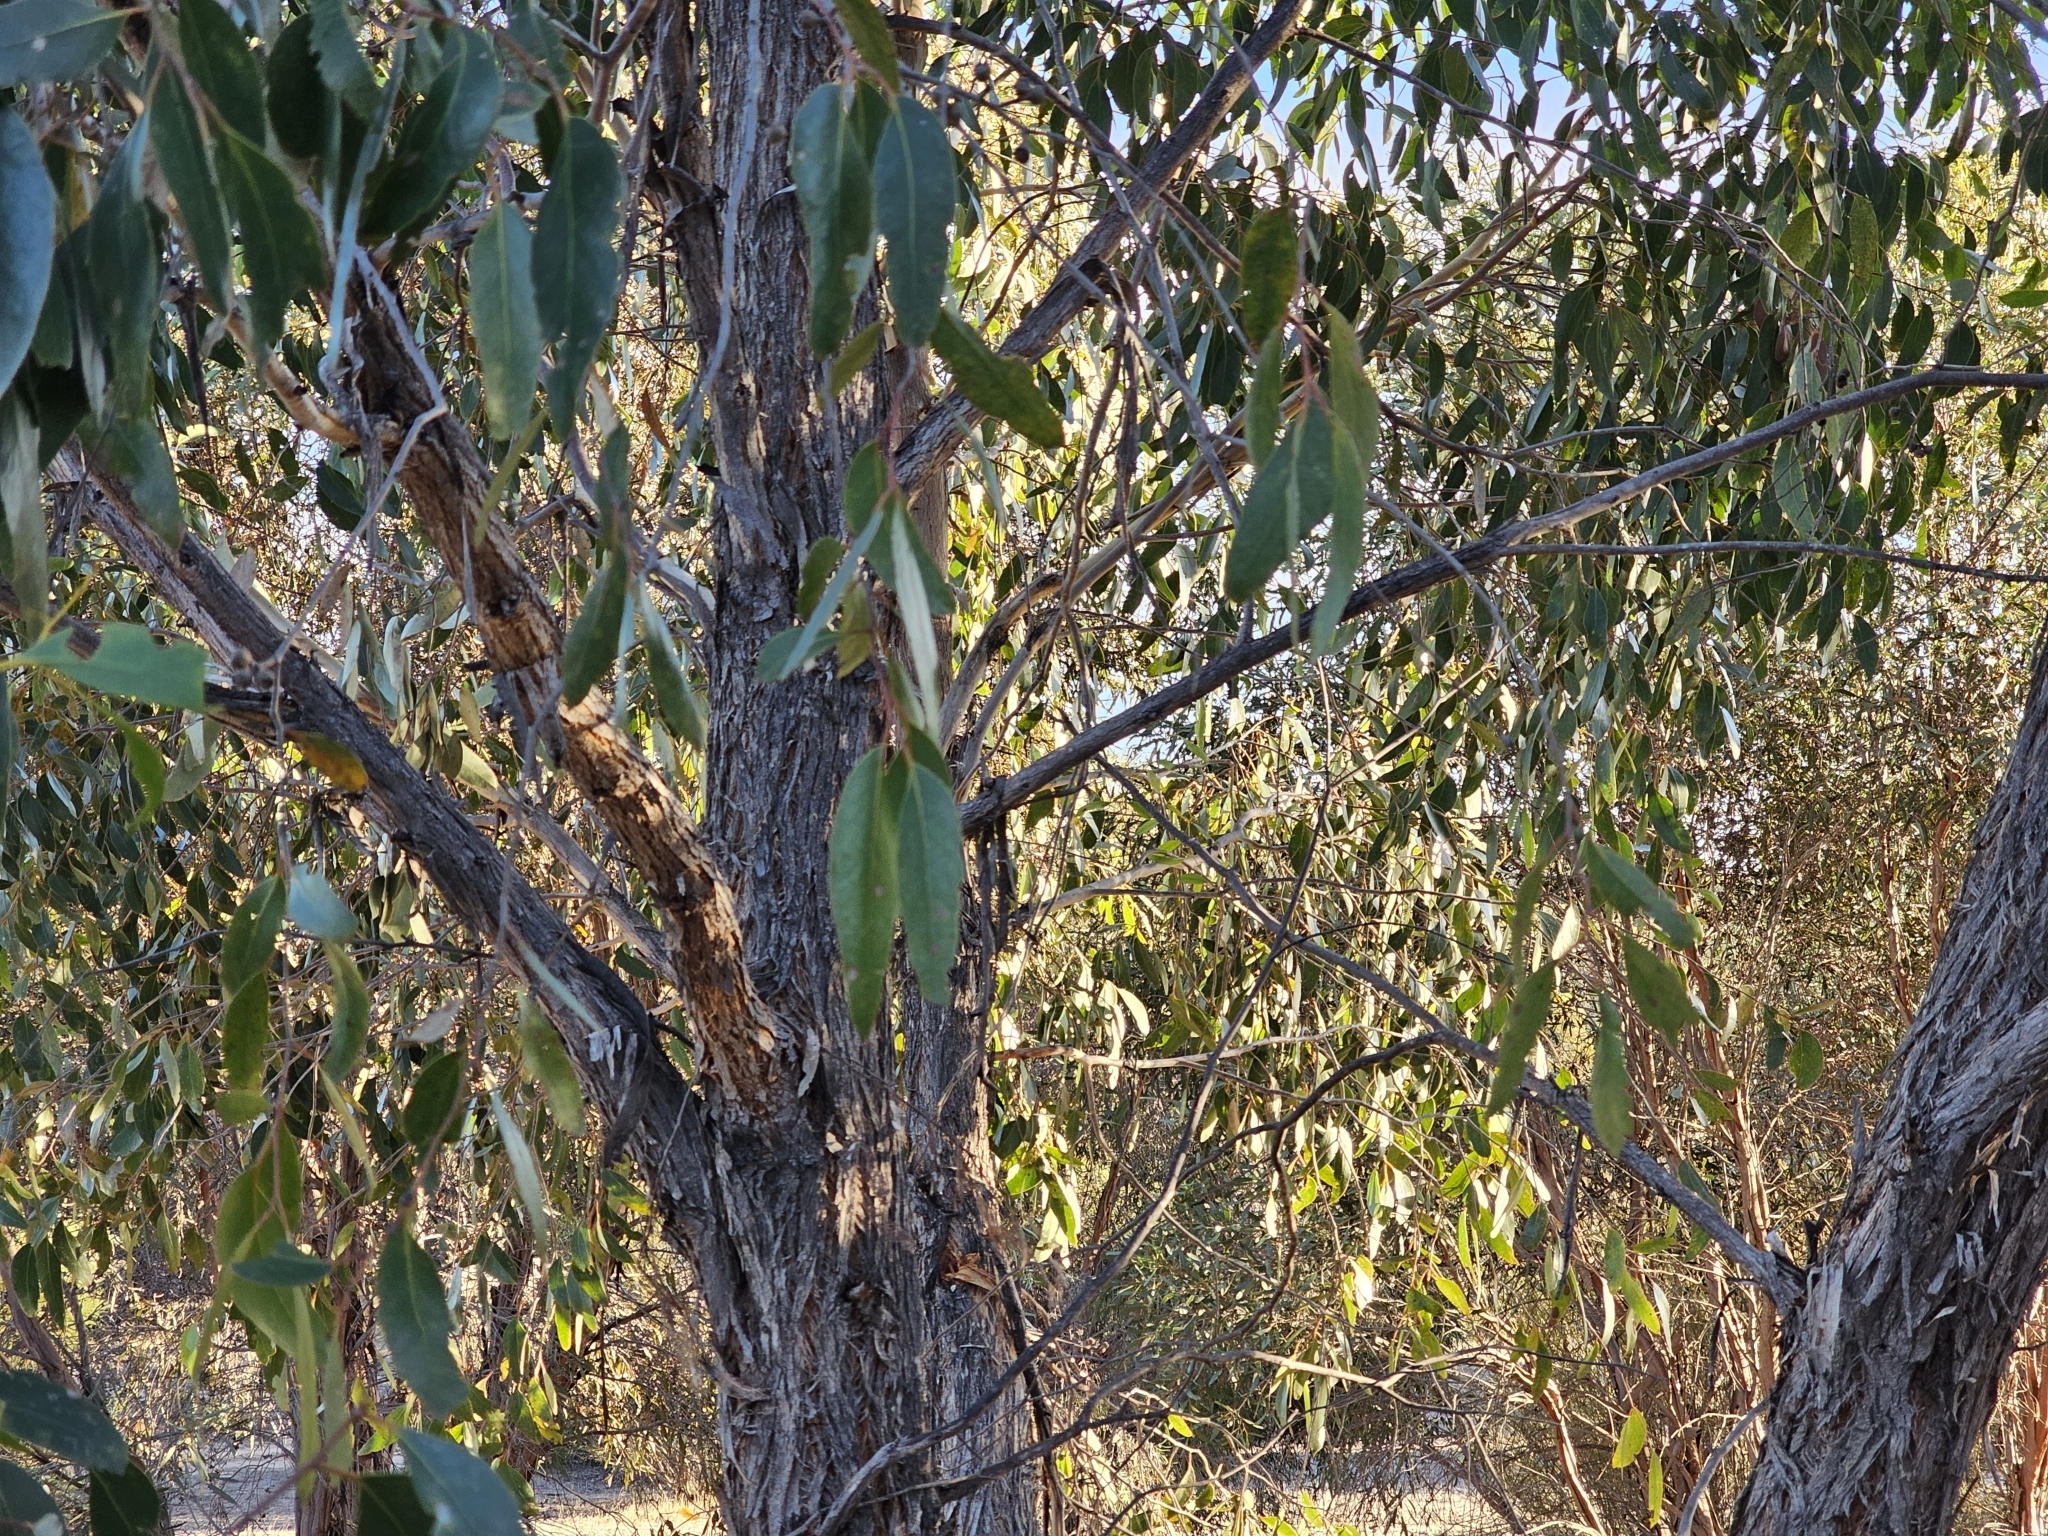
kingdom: Plantae
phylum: Tracheophyta
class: Magnoliopsida
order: Myrtales
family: Myrtaceae
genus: Eucalyptus
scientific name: Eucalyptus arenacea
